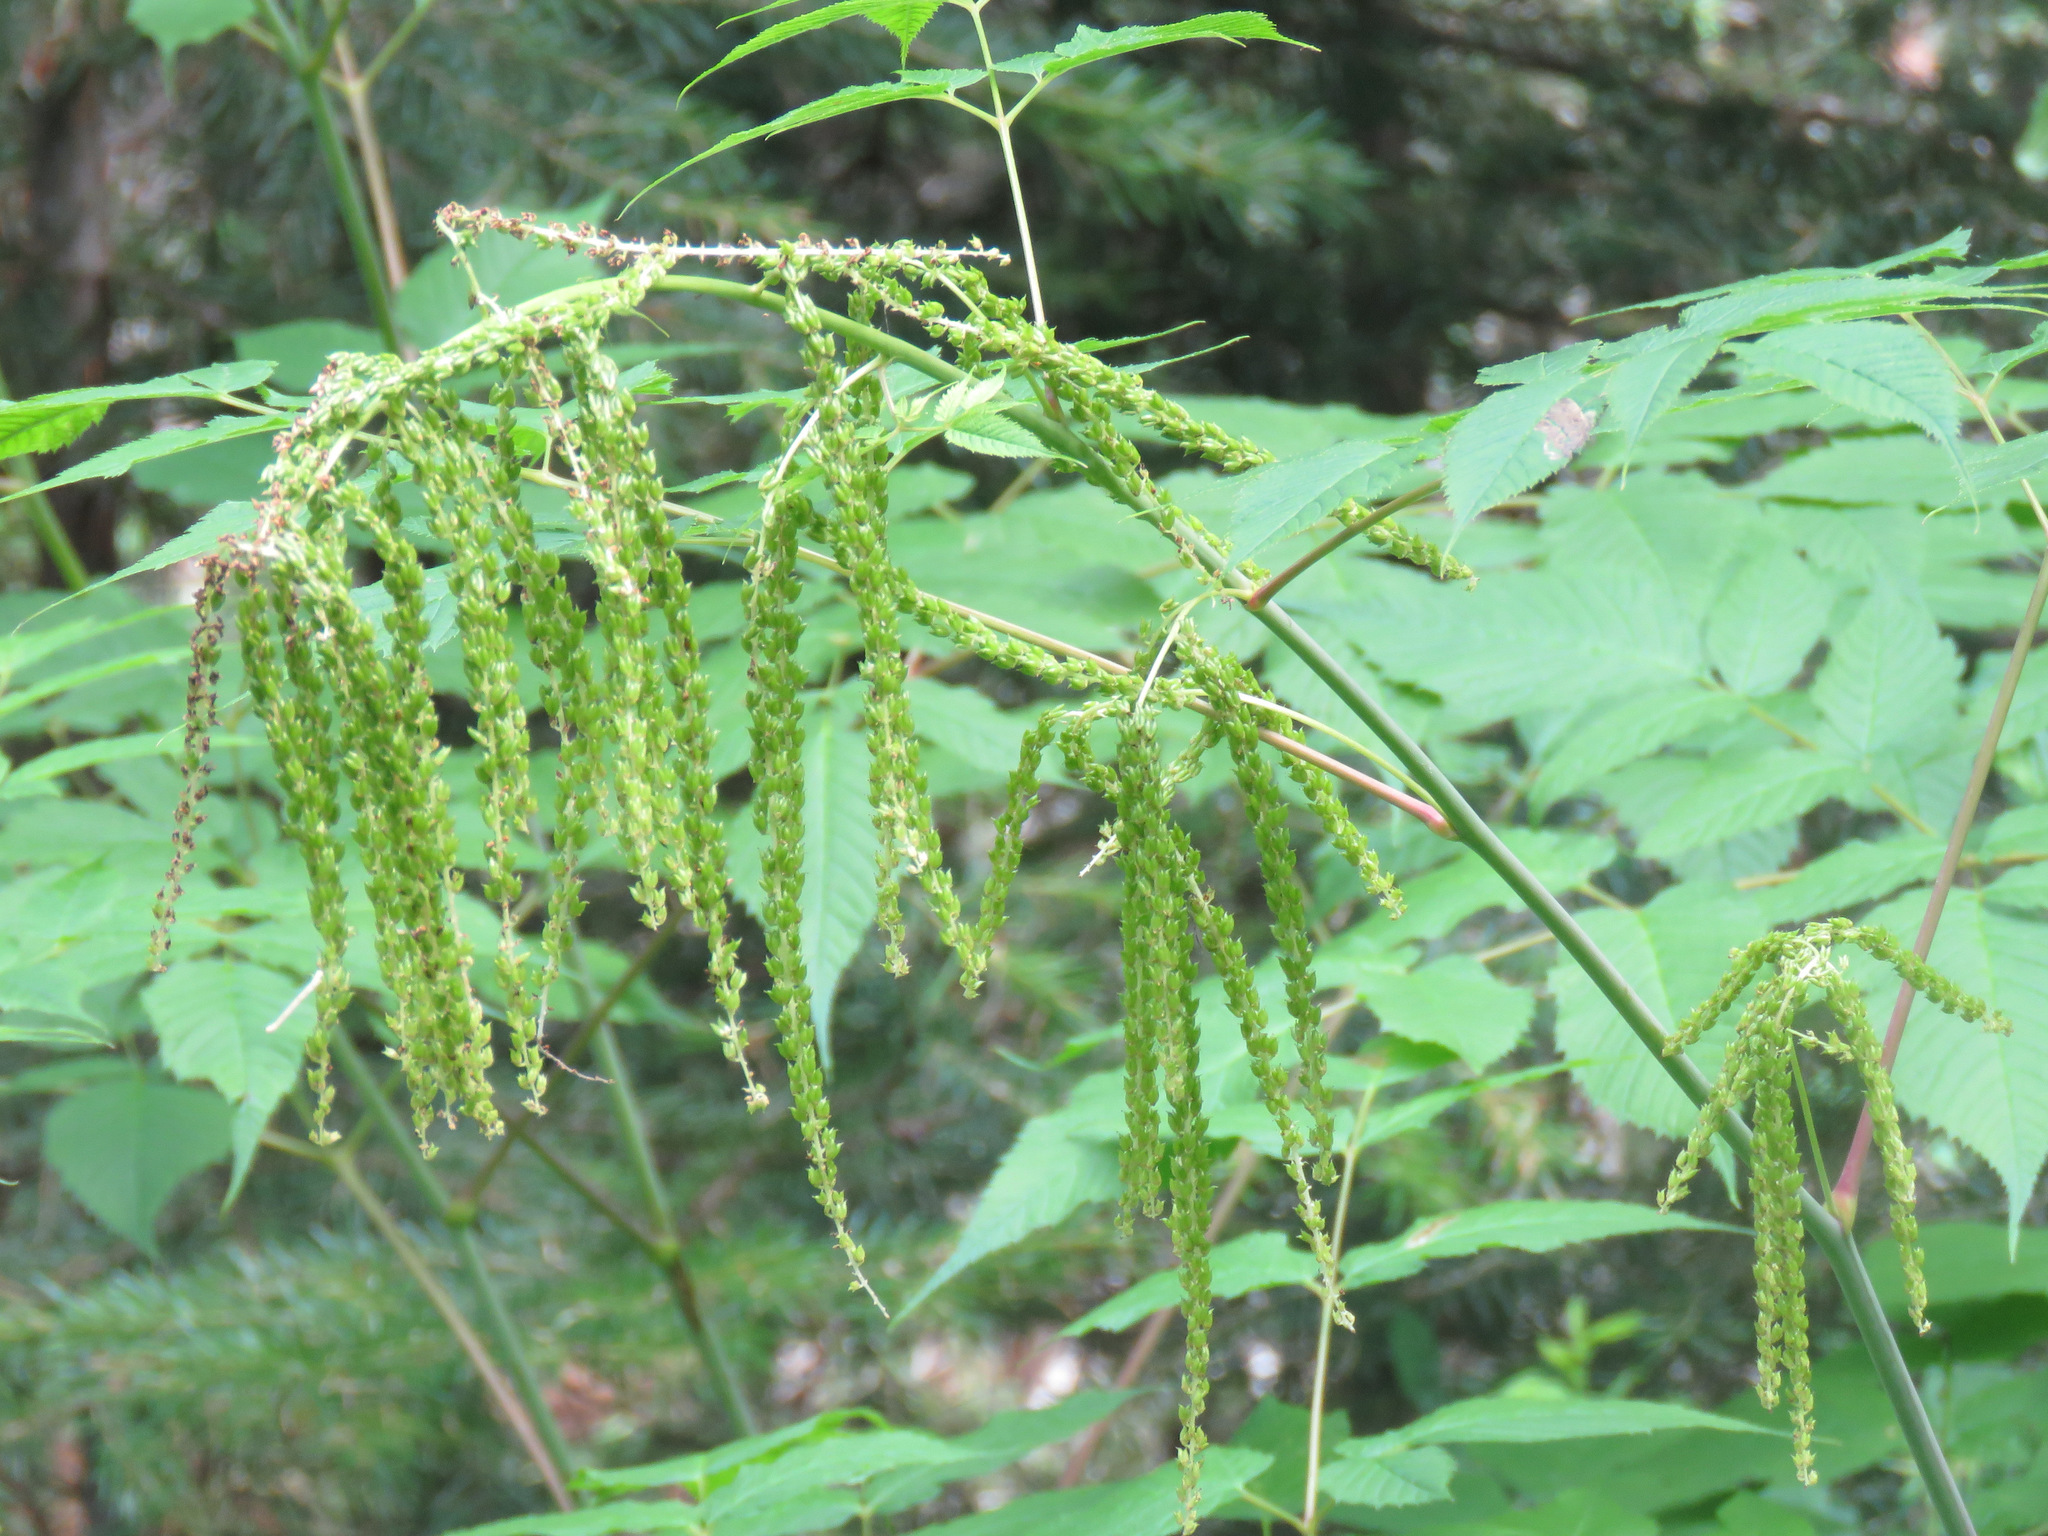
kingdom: Plantae
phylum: Tracheophyta
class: Magnoliopsida
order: Rosales
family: Rosaceae
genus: Aruncus
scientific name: Aruncus dioicus
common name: Buck's-beard
